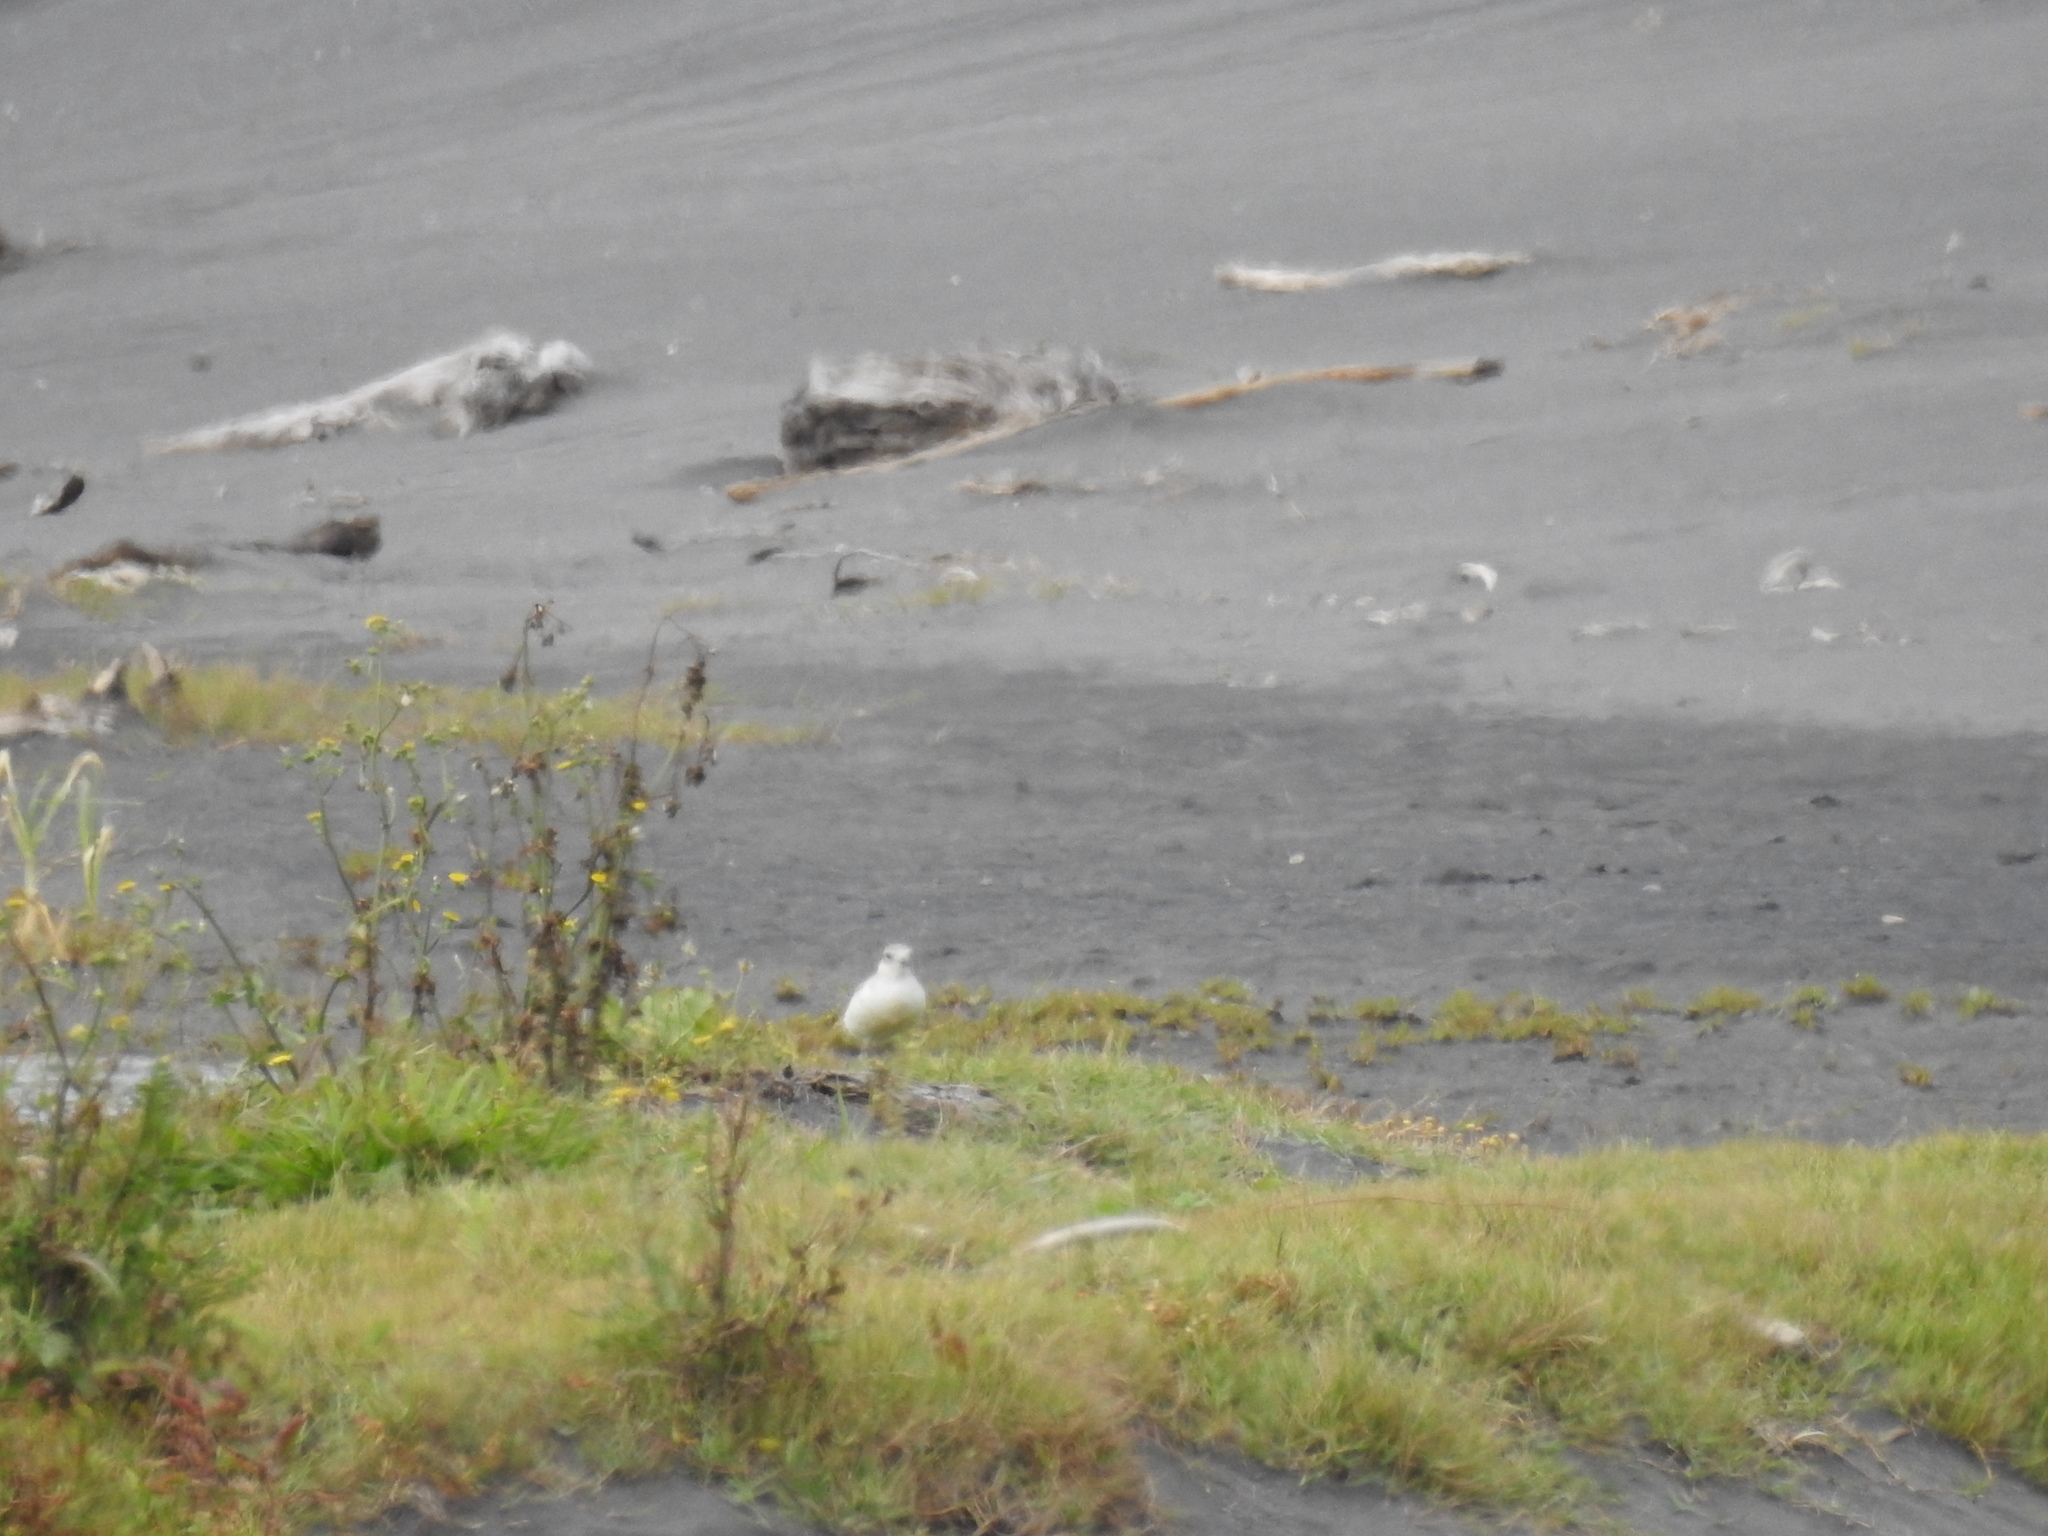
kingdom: Animalia
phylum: Chordata
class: Aves
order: Charadriiformes
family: Charadriidae
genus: Anarhynchus
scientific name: Anarhynchus
